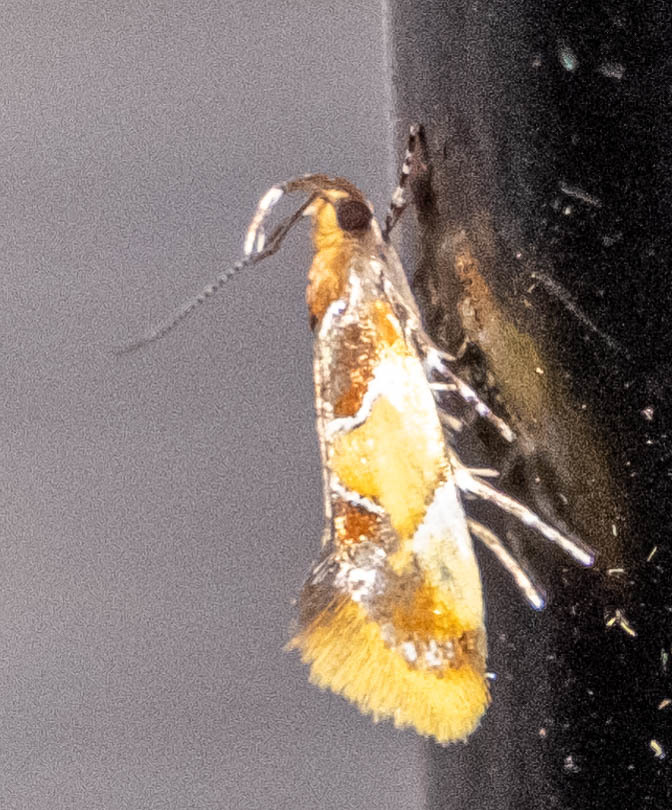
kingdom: Animalia
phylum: Arthropoda
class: Insecta
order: Lepidoptera
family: Oecophoridae
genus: Callima
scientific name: Callima argenticinctella
